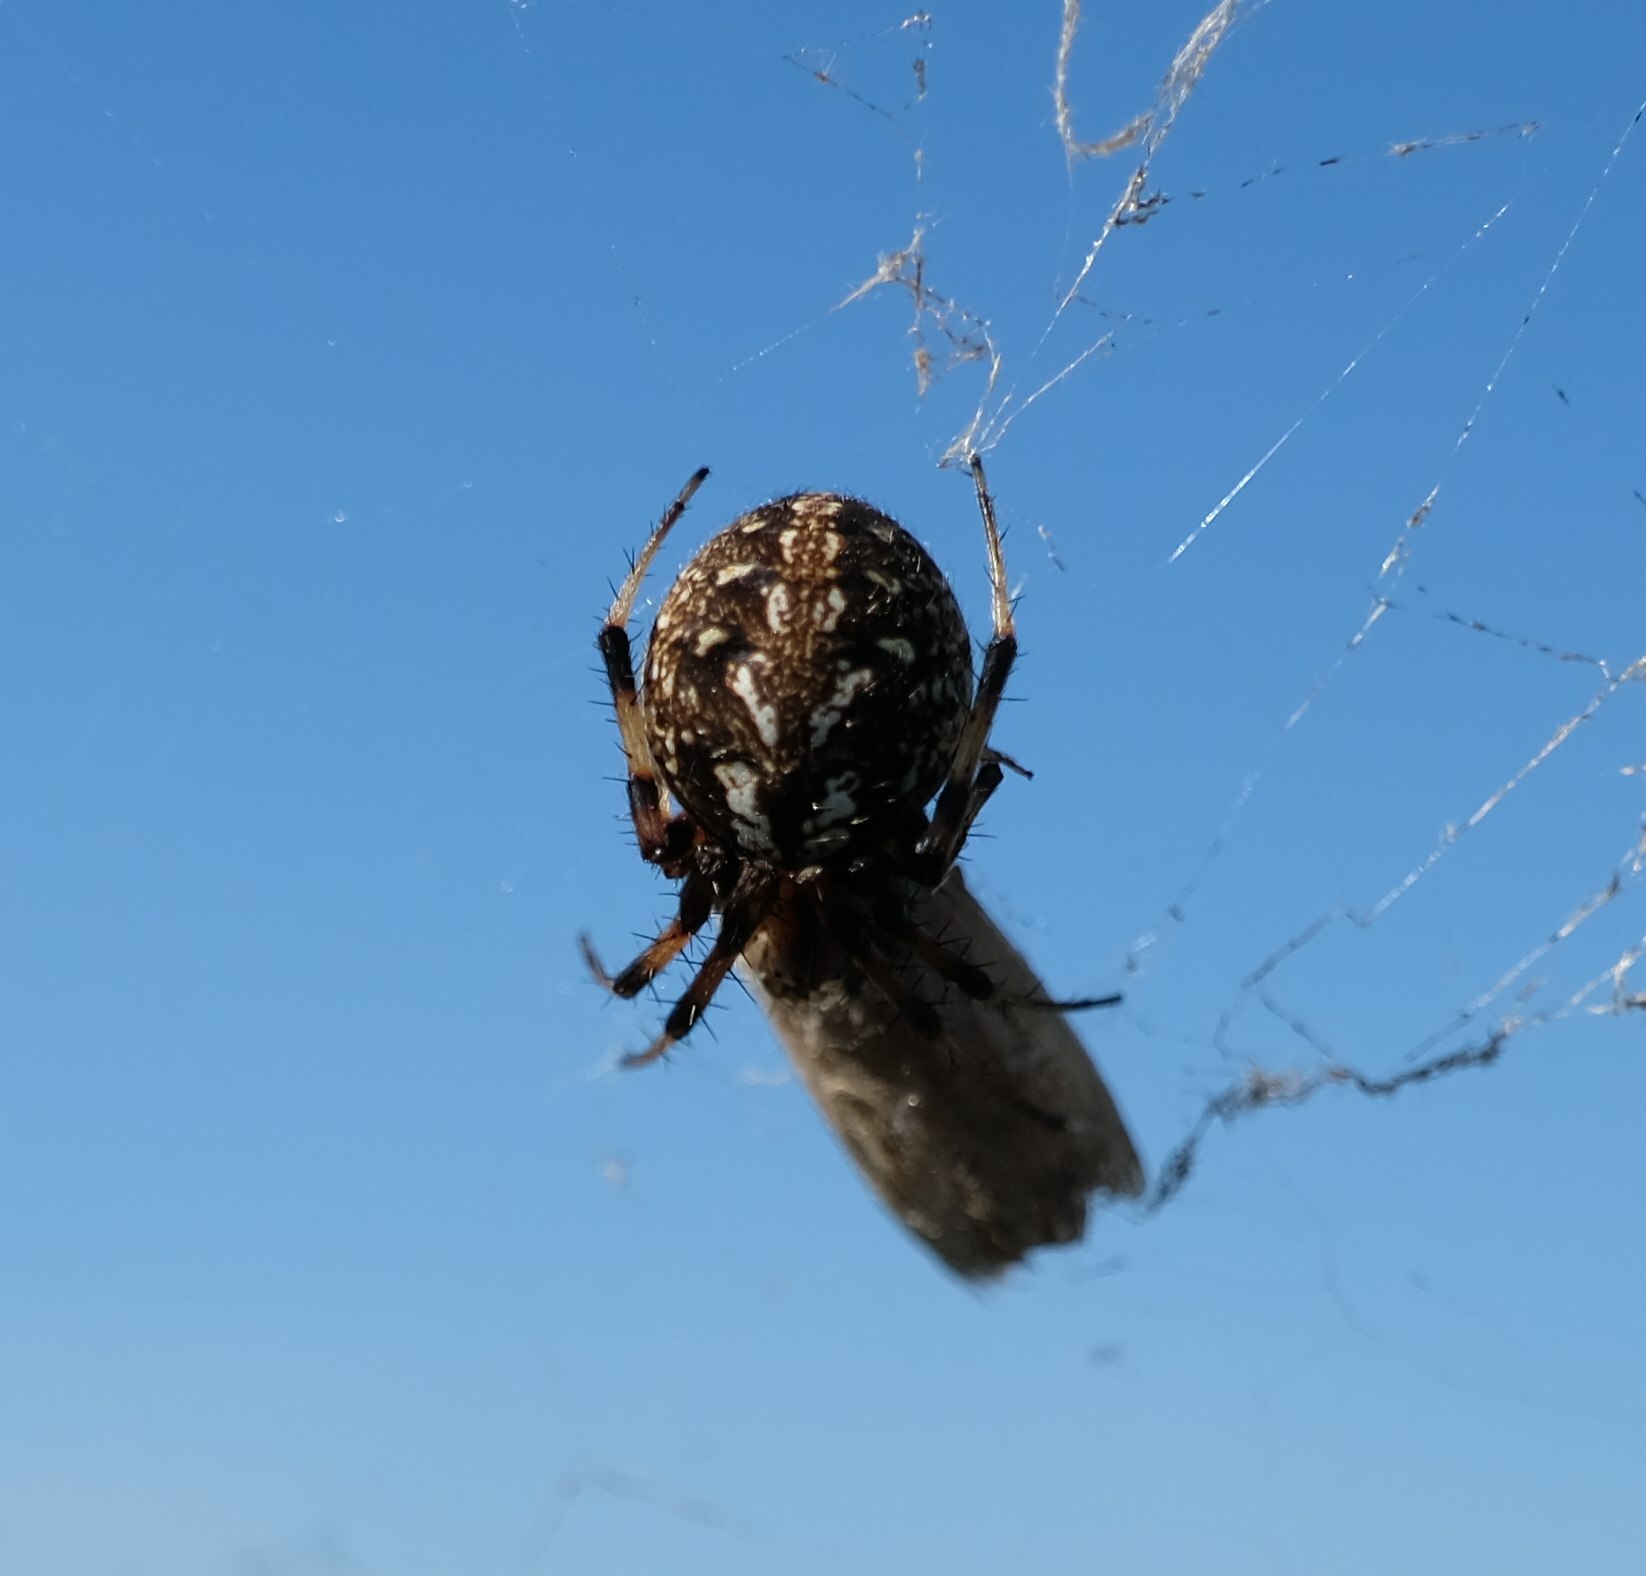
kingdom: Animalia
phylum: Arthropoda
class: Arachnida
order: Araneae
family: Araneidae
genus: Neoscona
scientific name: Neoscona byzanthina
